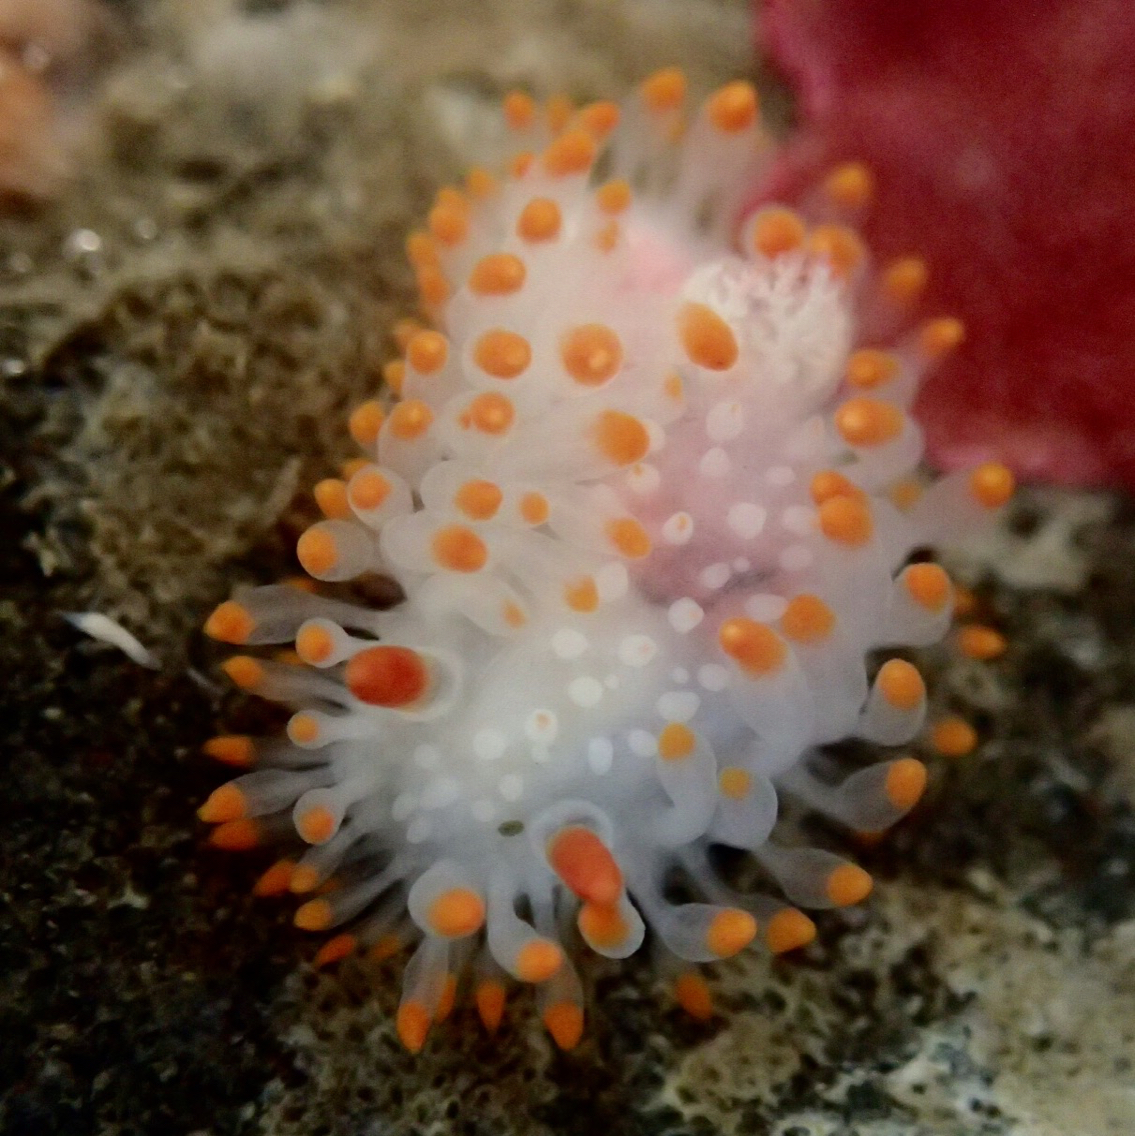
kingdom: Animalia
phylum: Mollusca
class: Gastropoda
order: Nudibranchia
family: Polyceridae
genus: Limacia
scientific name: Limacia cockerelli
